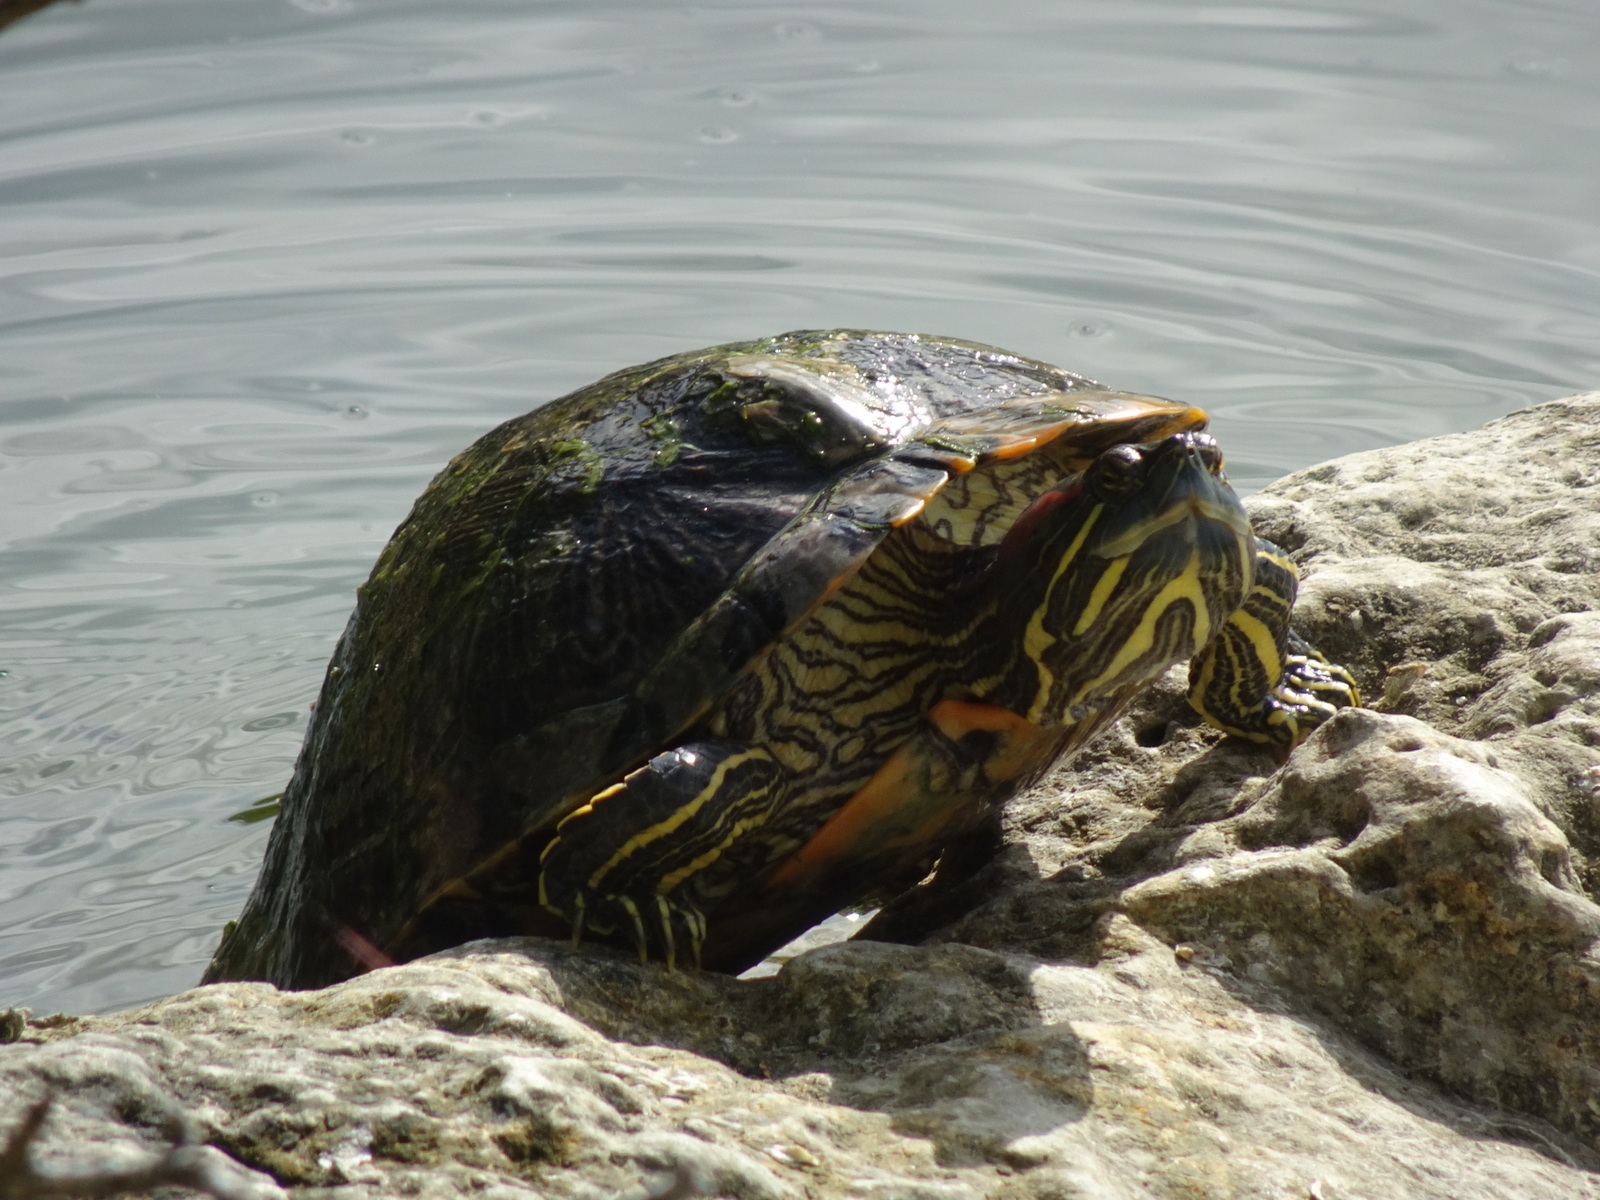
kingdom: Animalia
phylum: Chordata
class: Testudines
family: Emydidae
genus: Trachemys
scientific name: Trachemys scripta
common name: Slider
